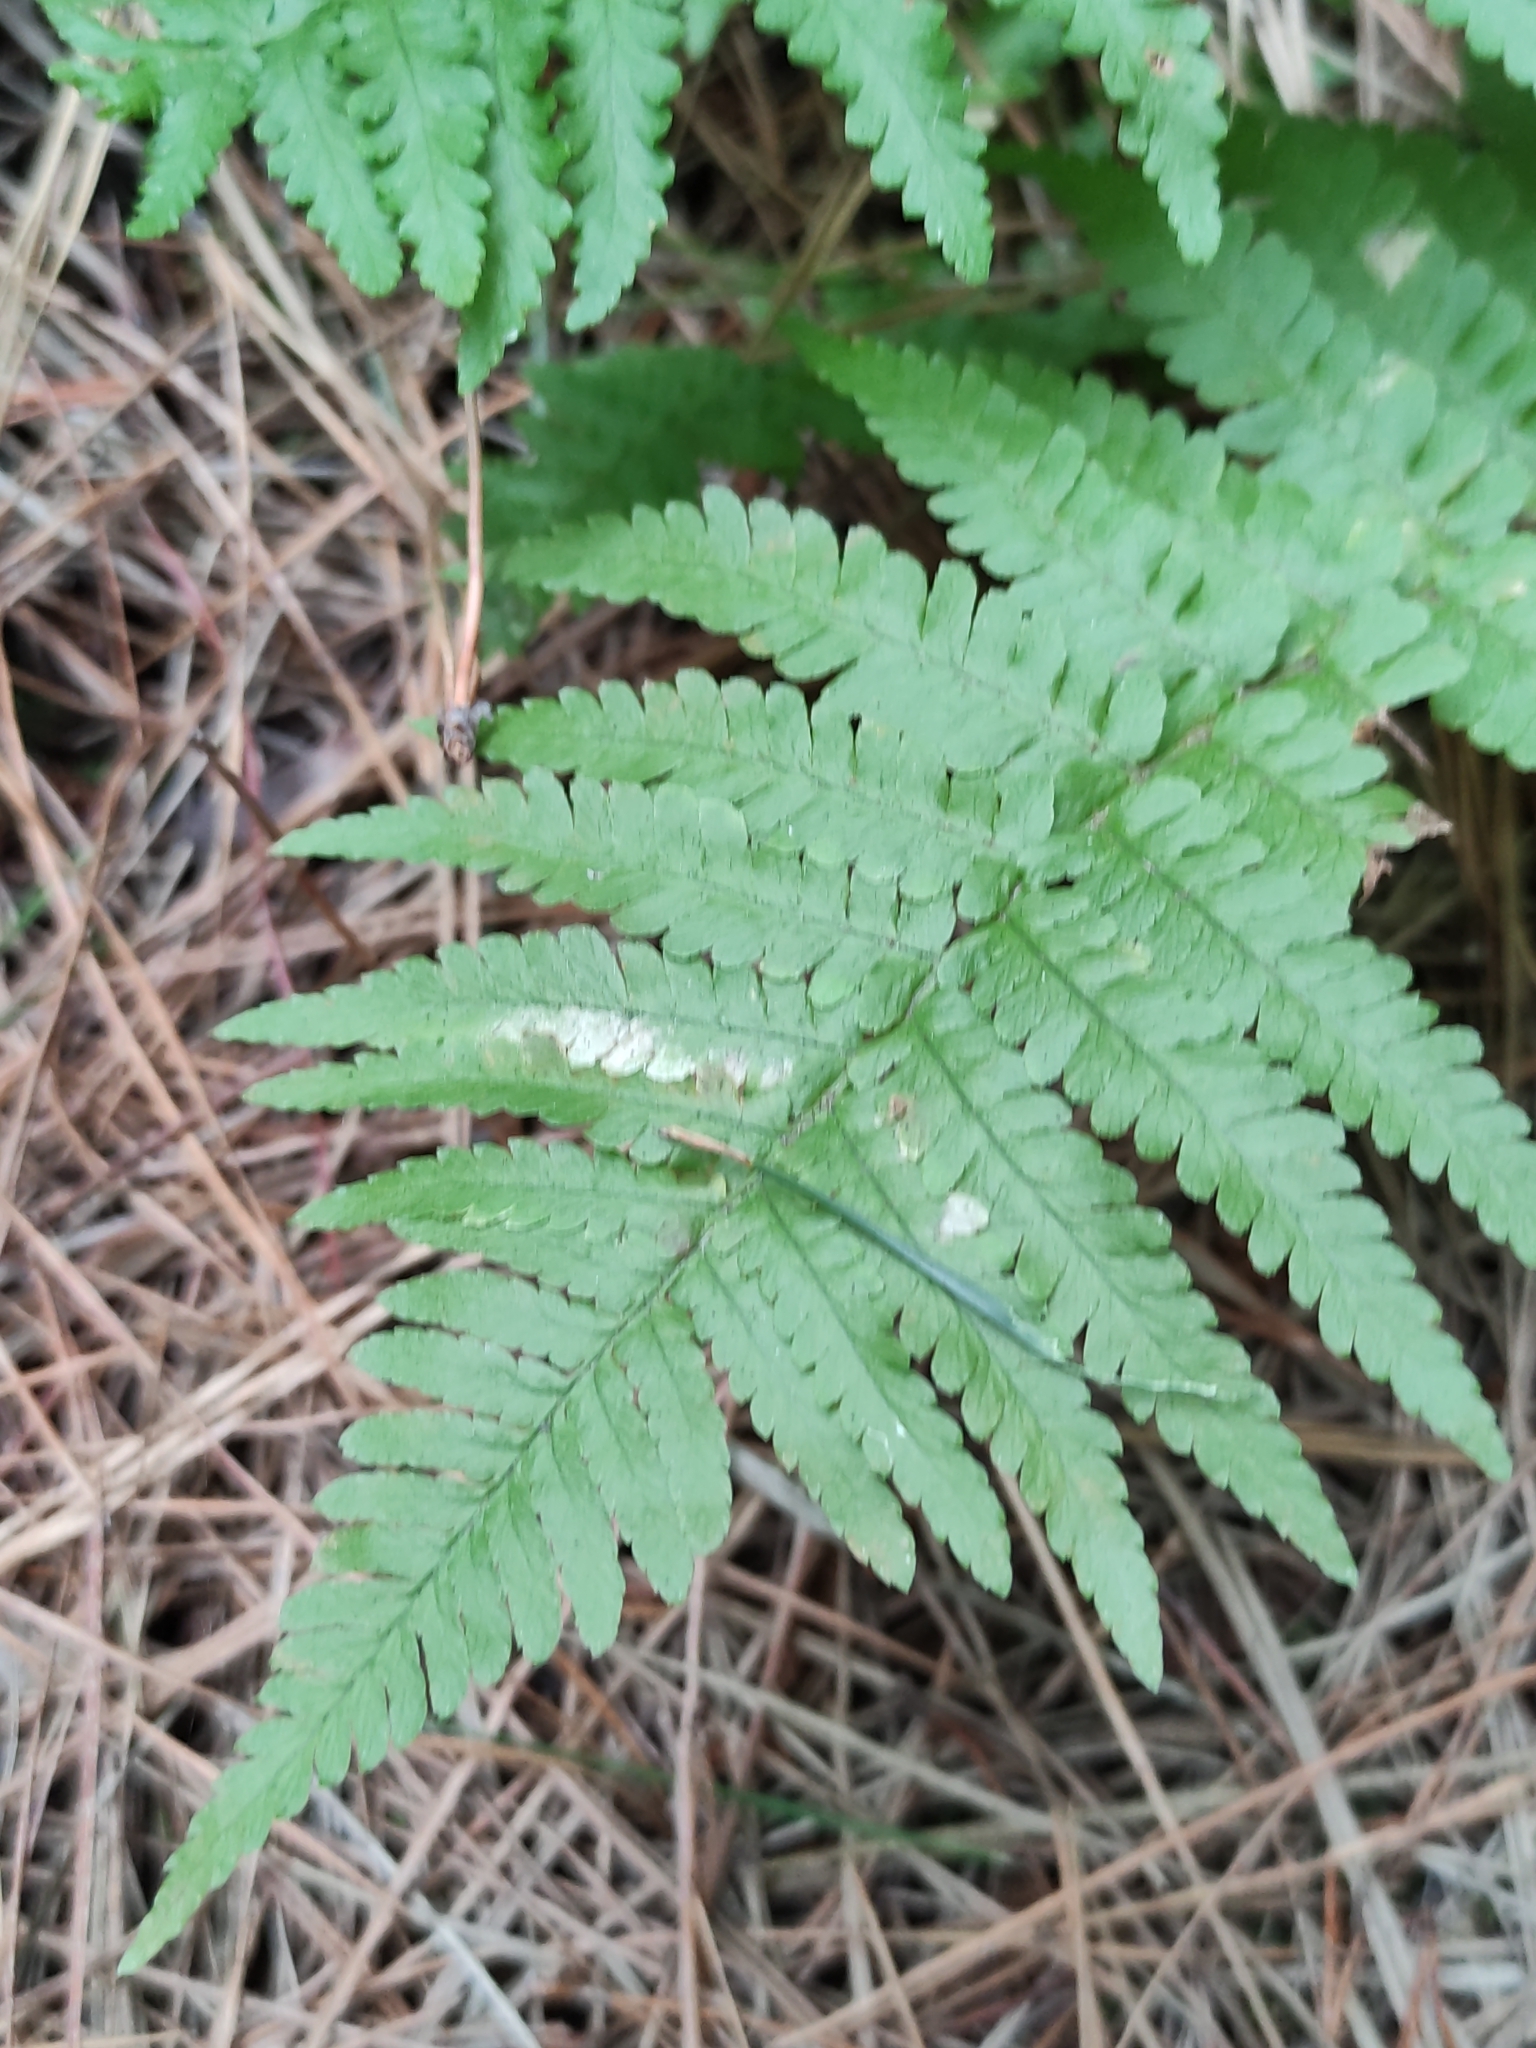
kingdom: Plantae
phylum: Tracheophyta
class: Polypodiopsida
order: Polypodiales
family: Dryopteridaceae
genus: Dryopteris
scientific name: Dryopteris filix-mas
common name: Male fern
